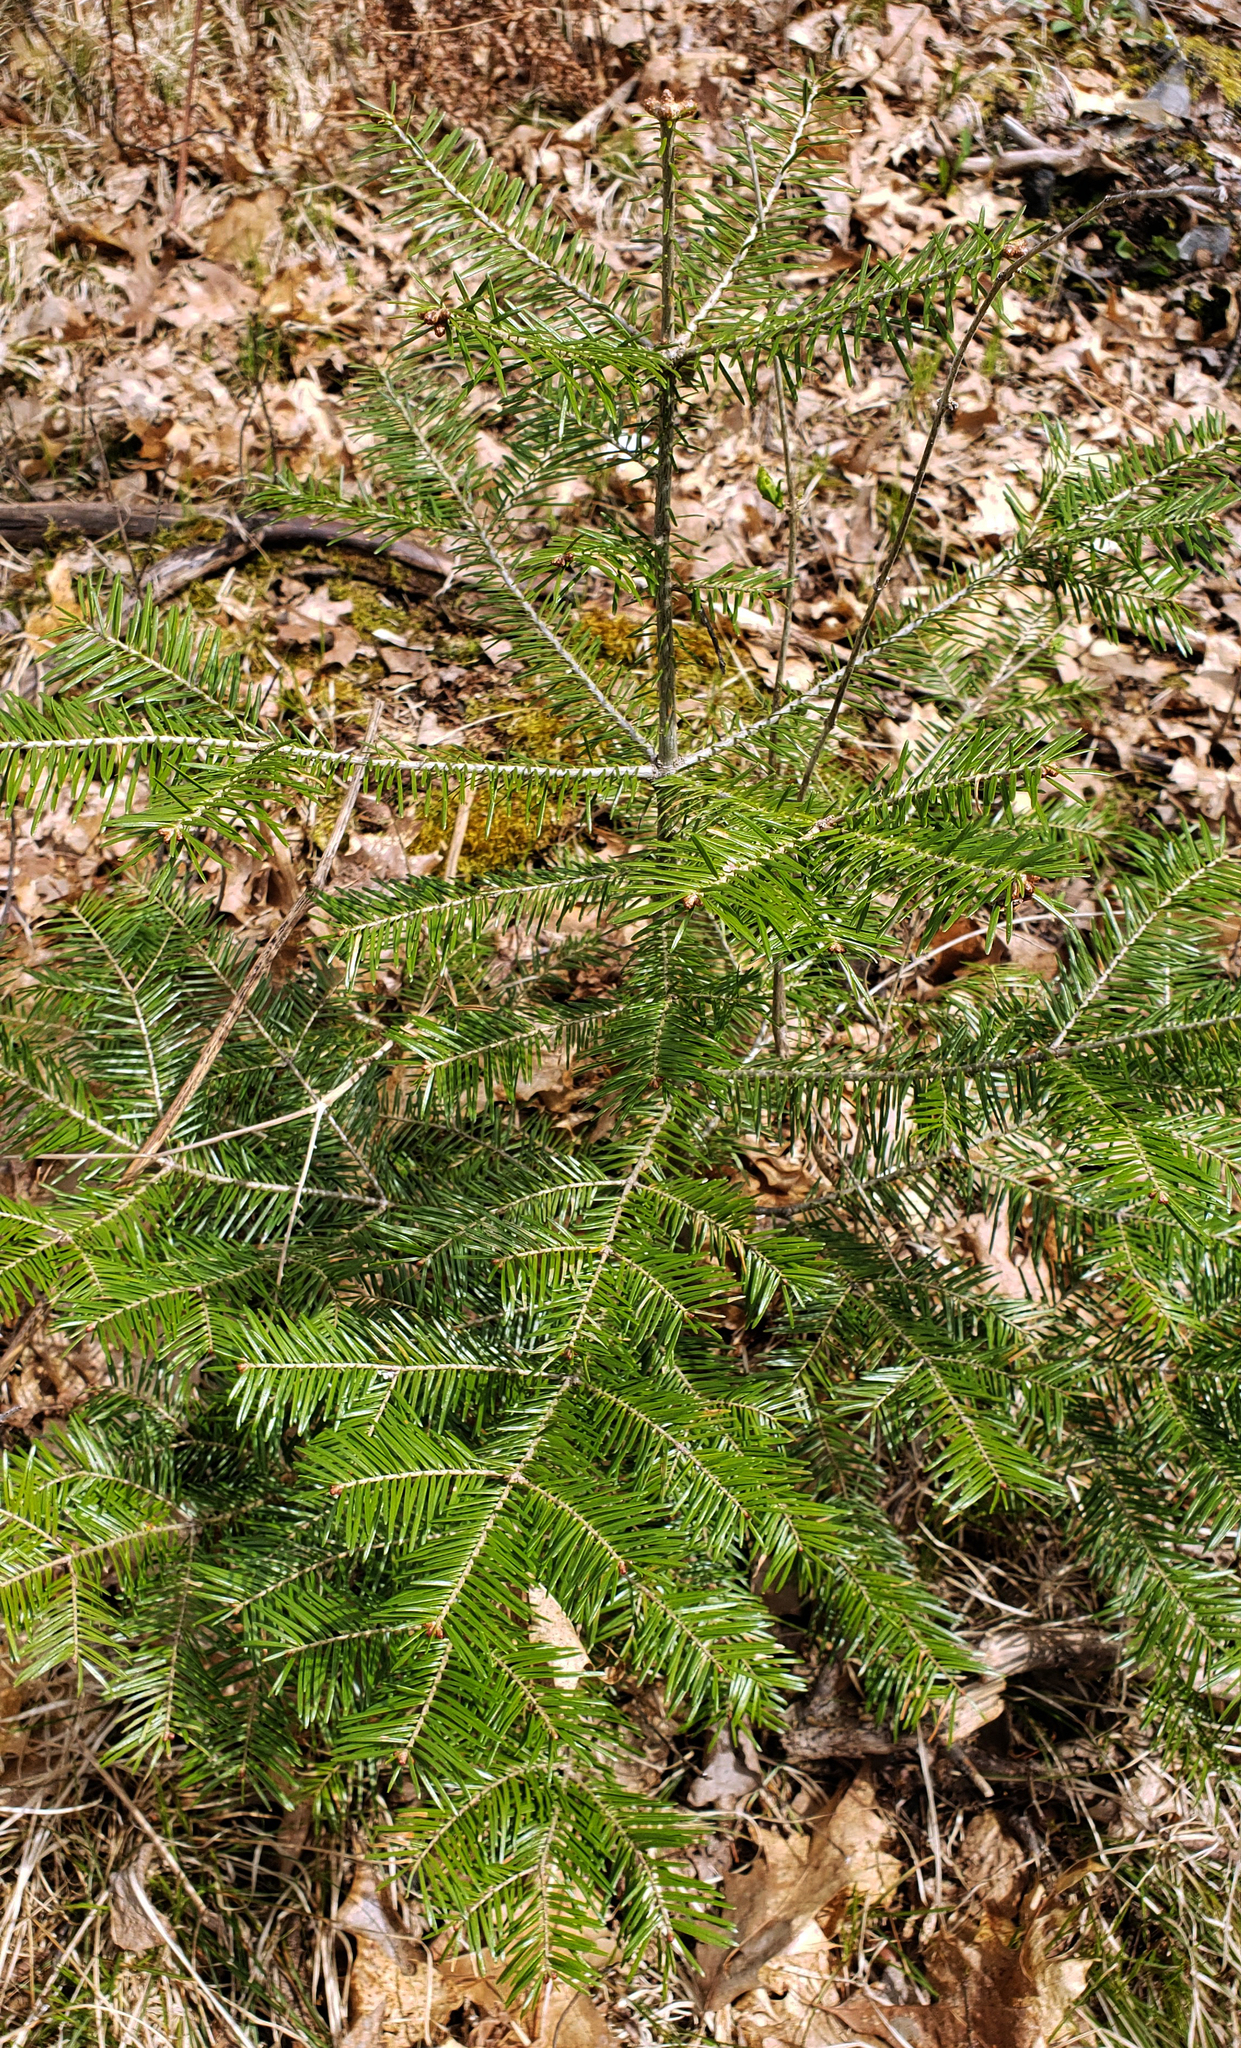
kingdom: Plantae
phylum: Tracheophyta
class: Pinopsida
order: Pinales
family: Pinaceae
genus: Abies
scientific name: Abies balsamea
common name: Balsam fir
